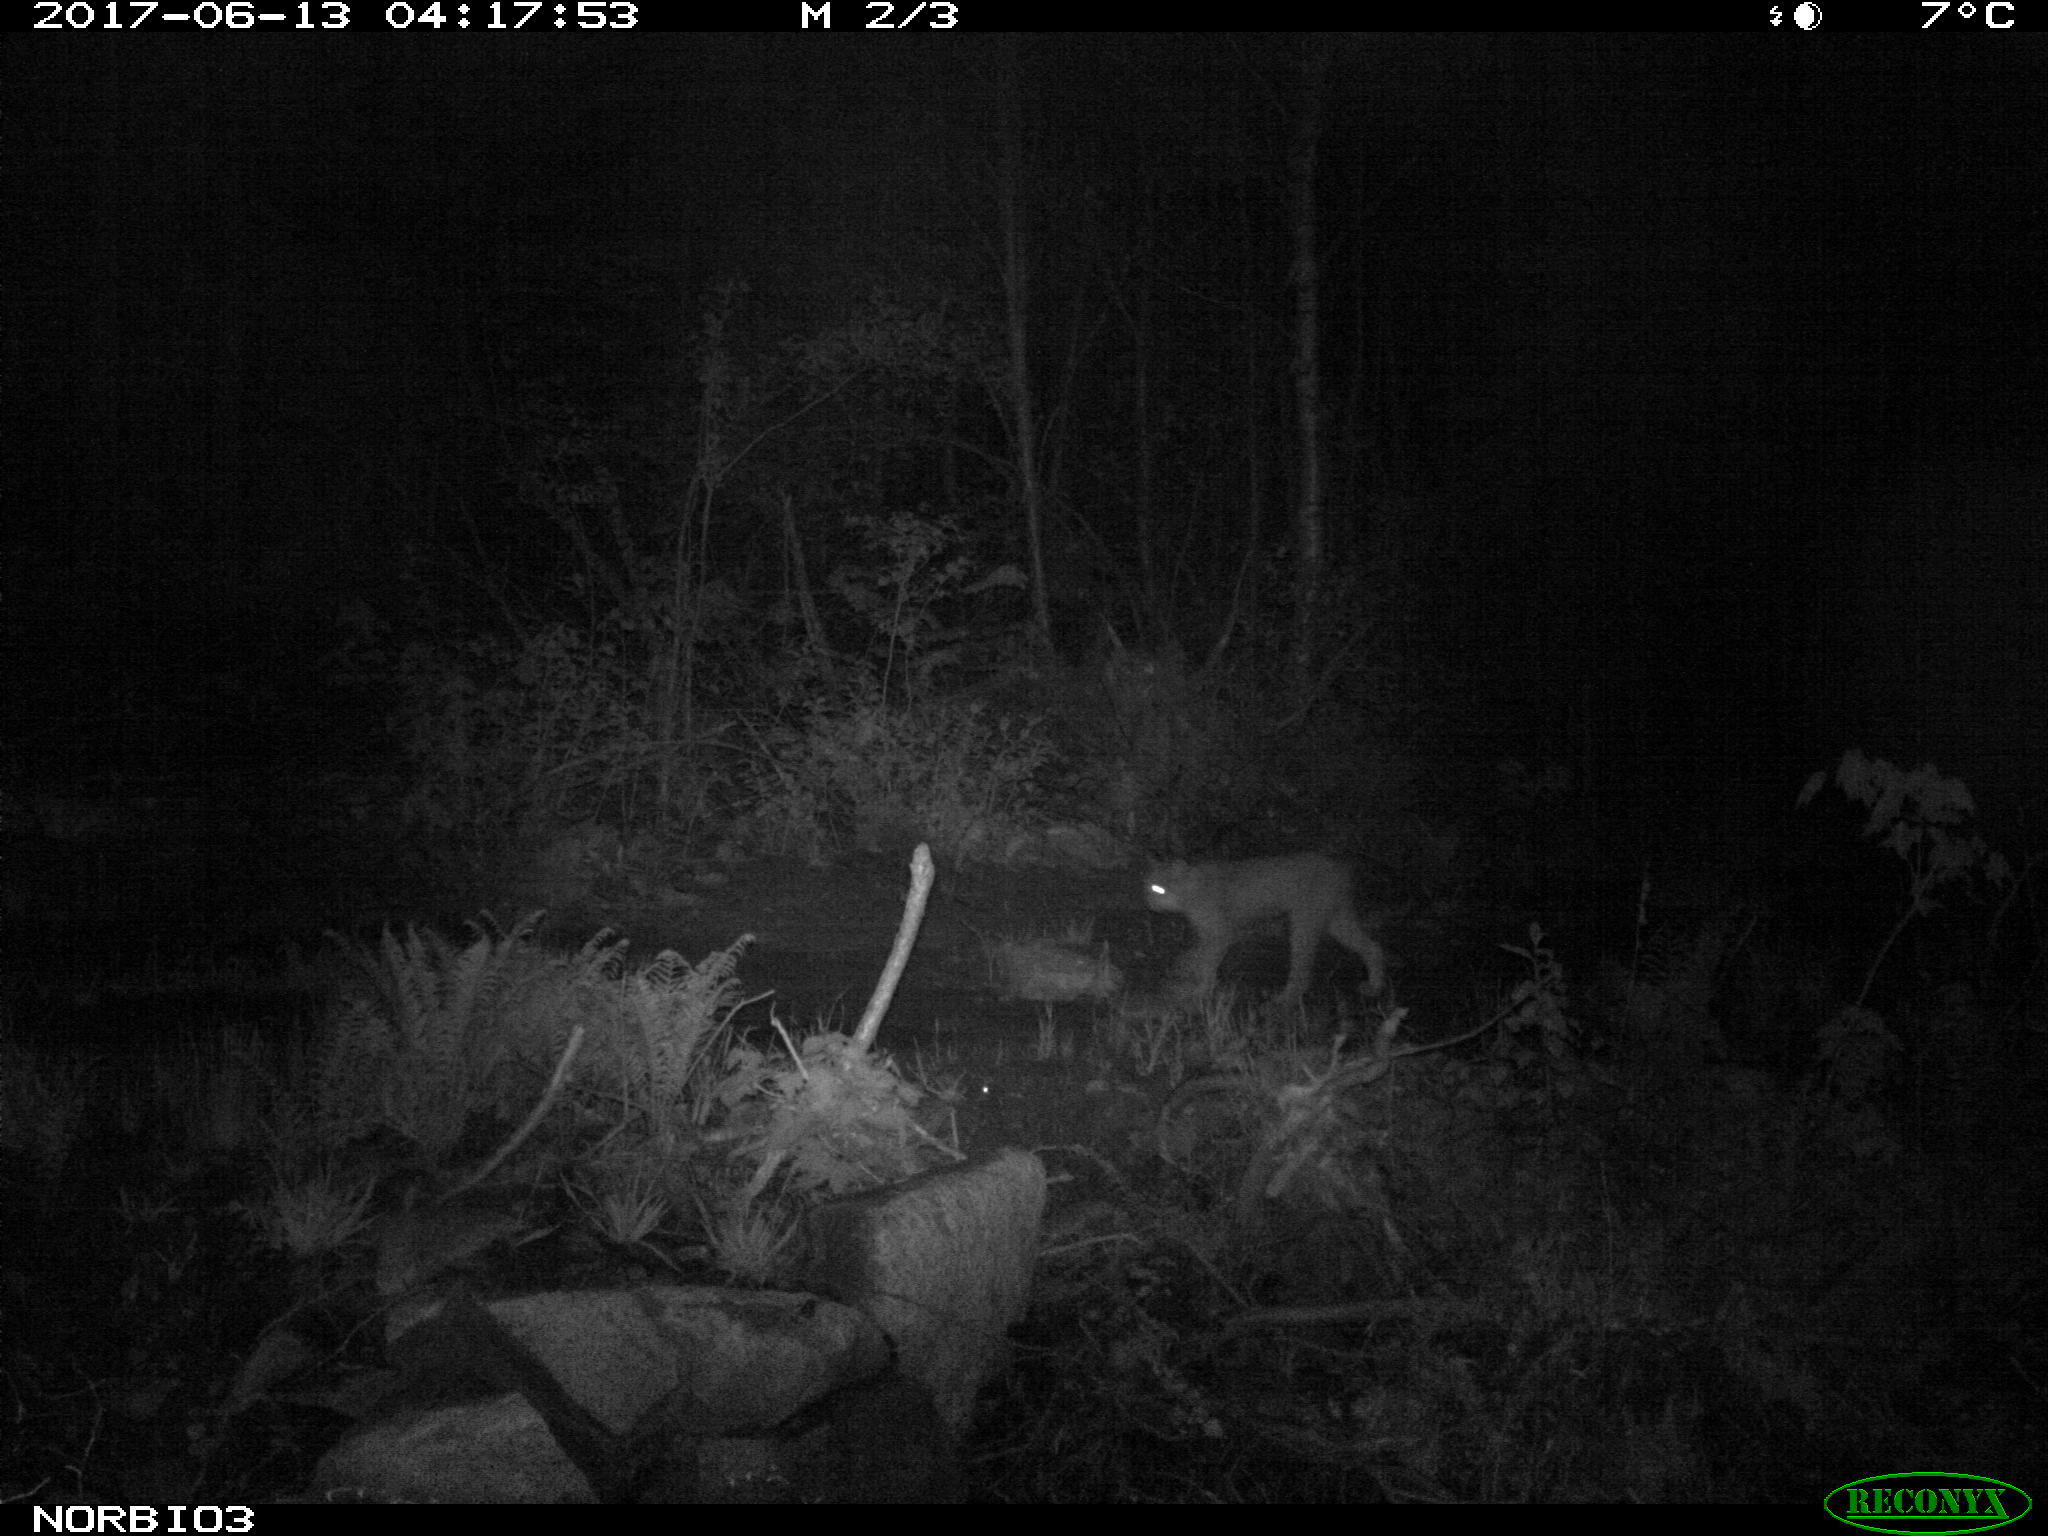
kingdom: Animalia
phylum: Chordata
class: Mammalia
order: Carnivora
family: Felidae
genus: Lynx
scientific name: Lynx canadensis
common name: Canadian lynx
